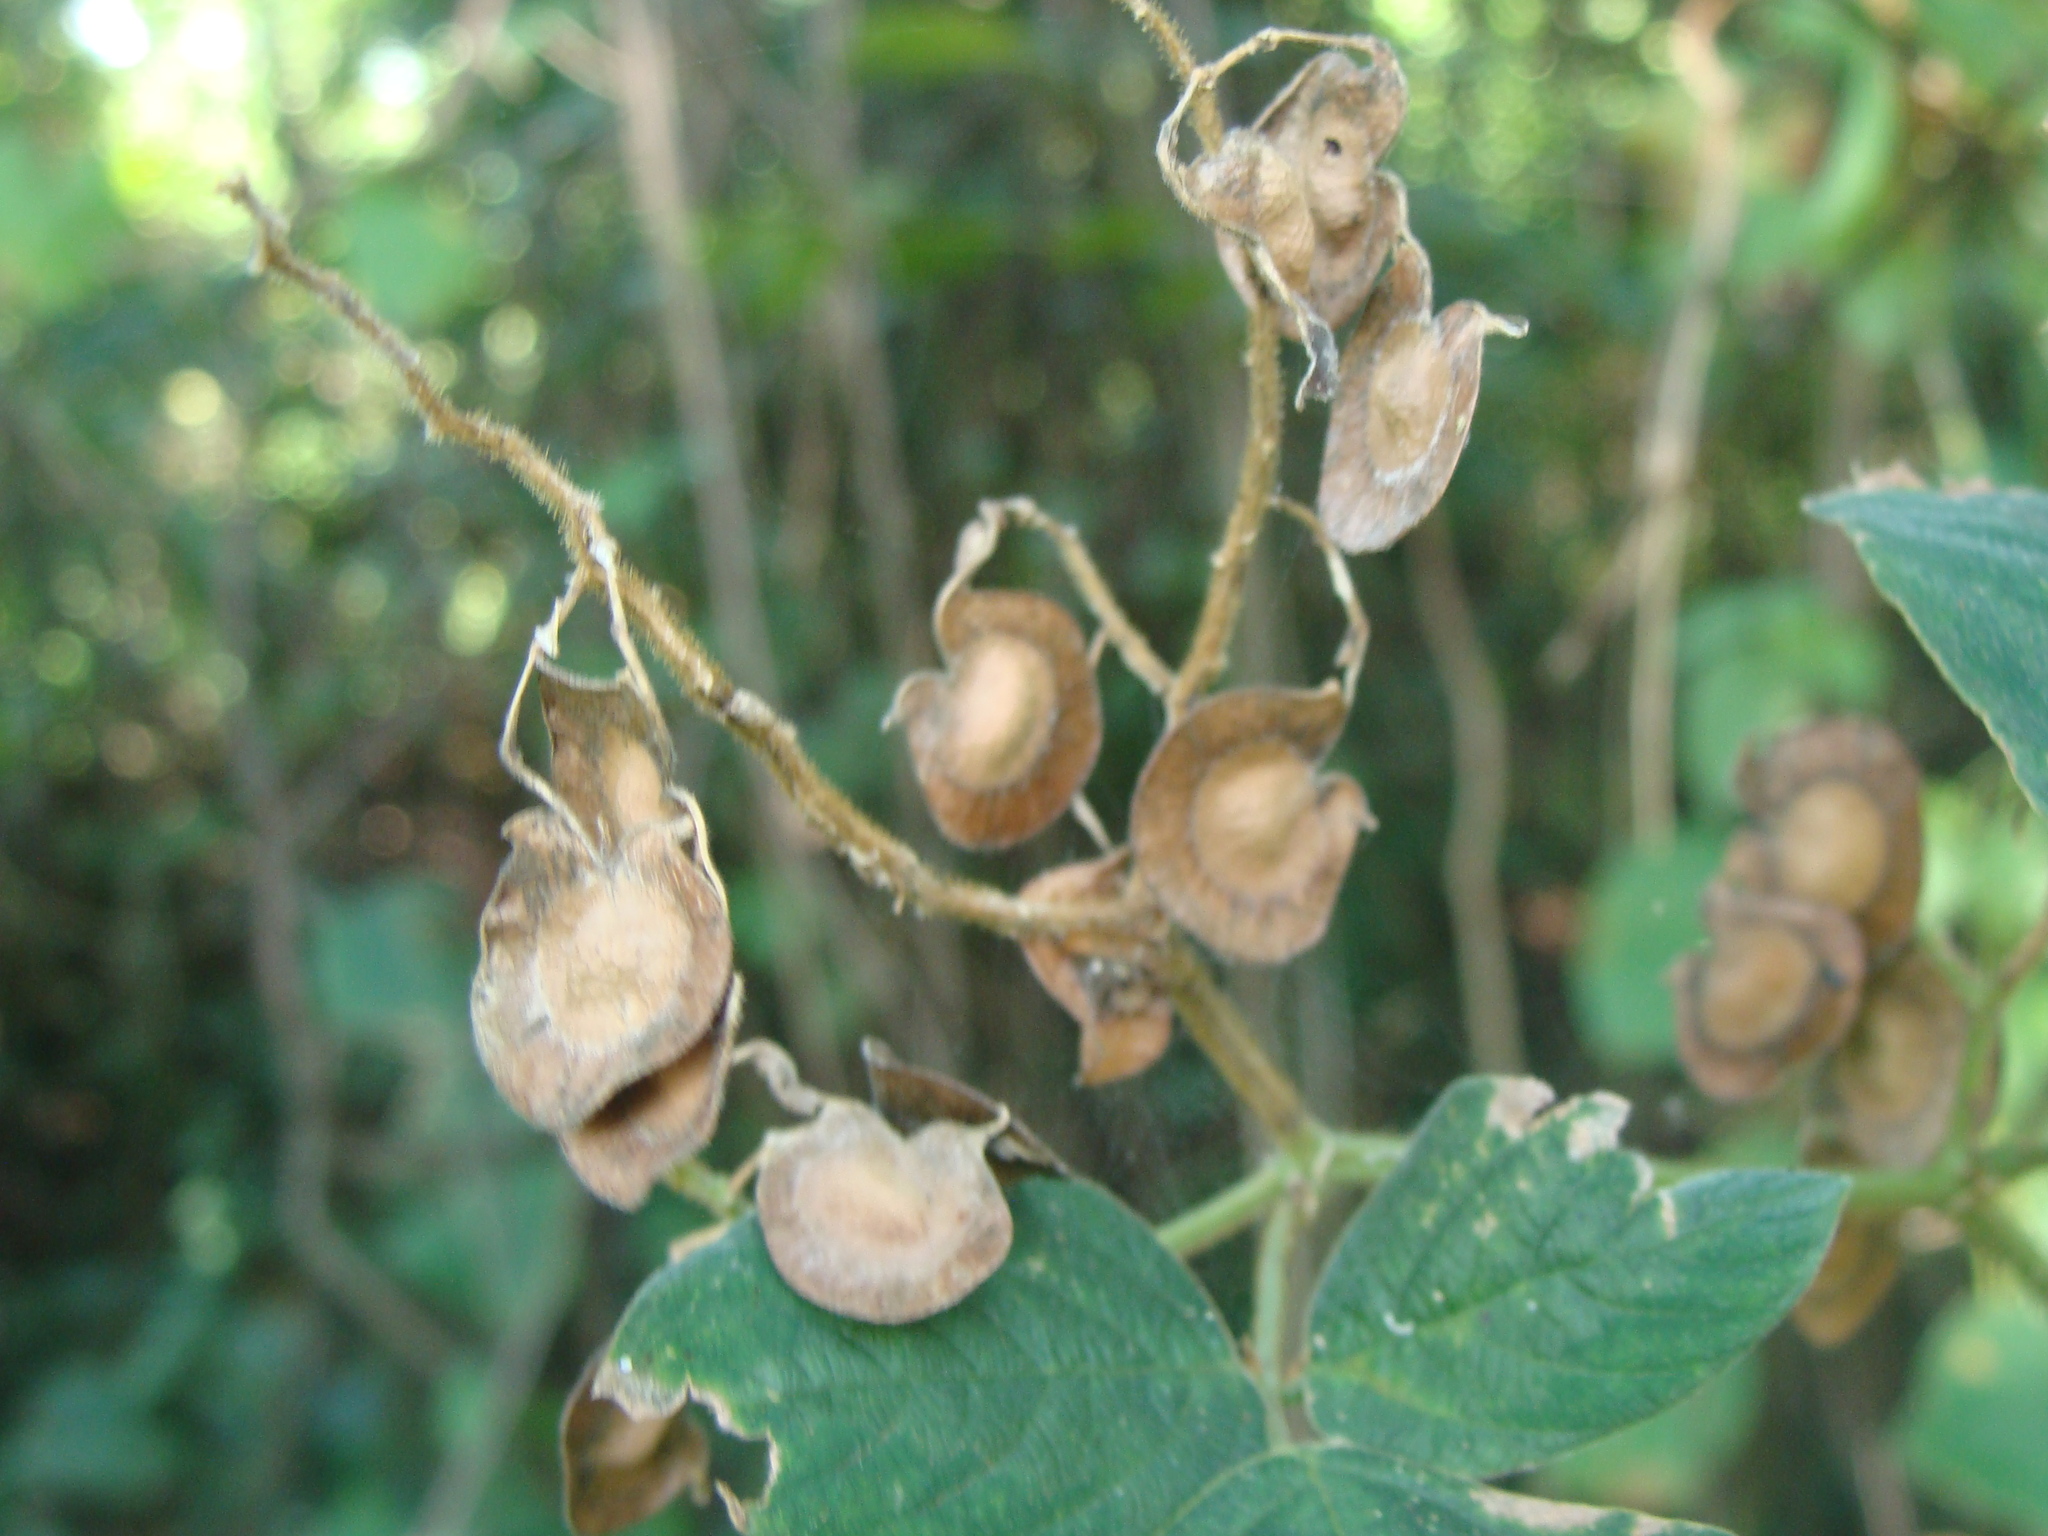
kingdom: Plantae
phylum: Tracheophyta
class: Magnoliopsida
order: Fabales
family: Fabaceae
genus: Desmodium
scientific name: Desmodium infractum
